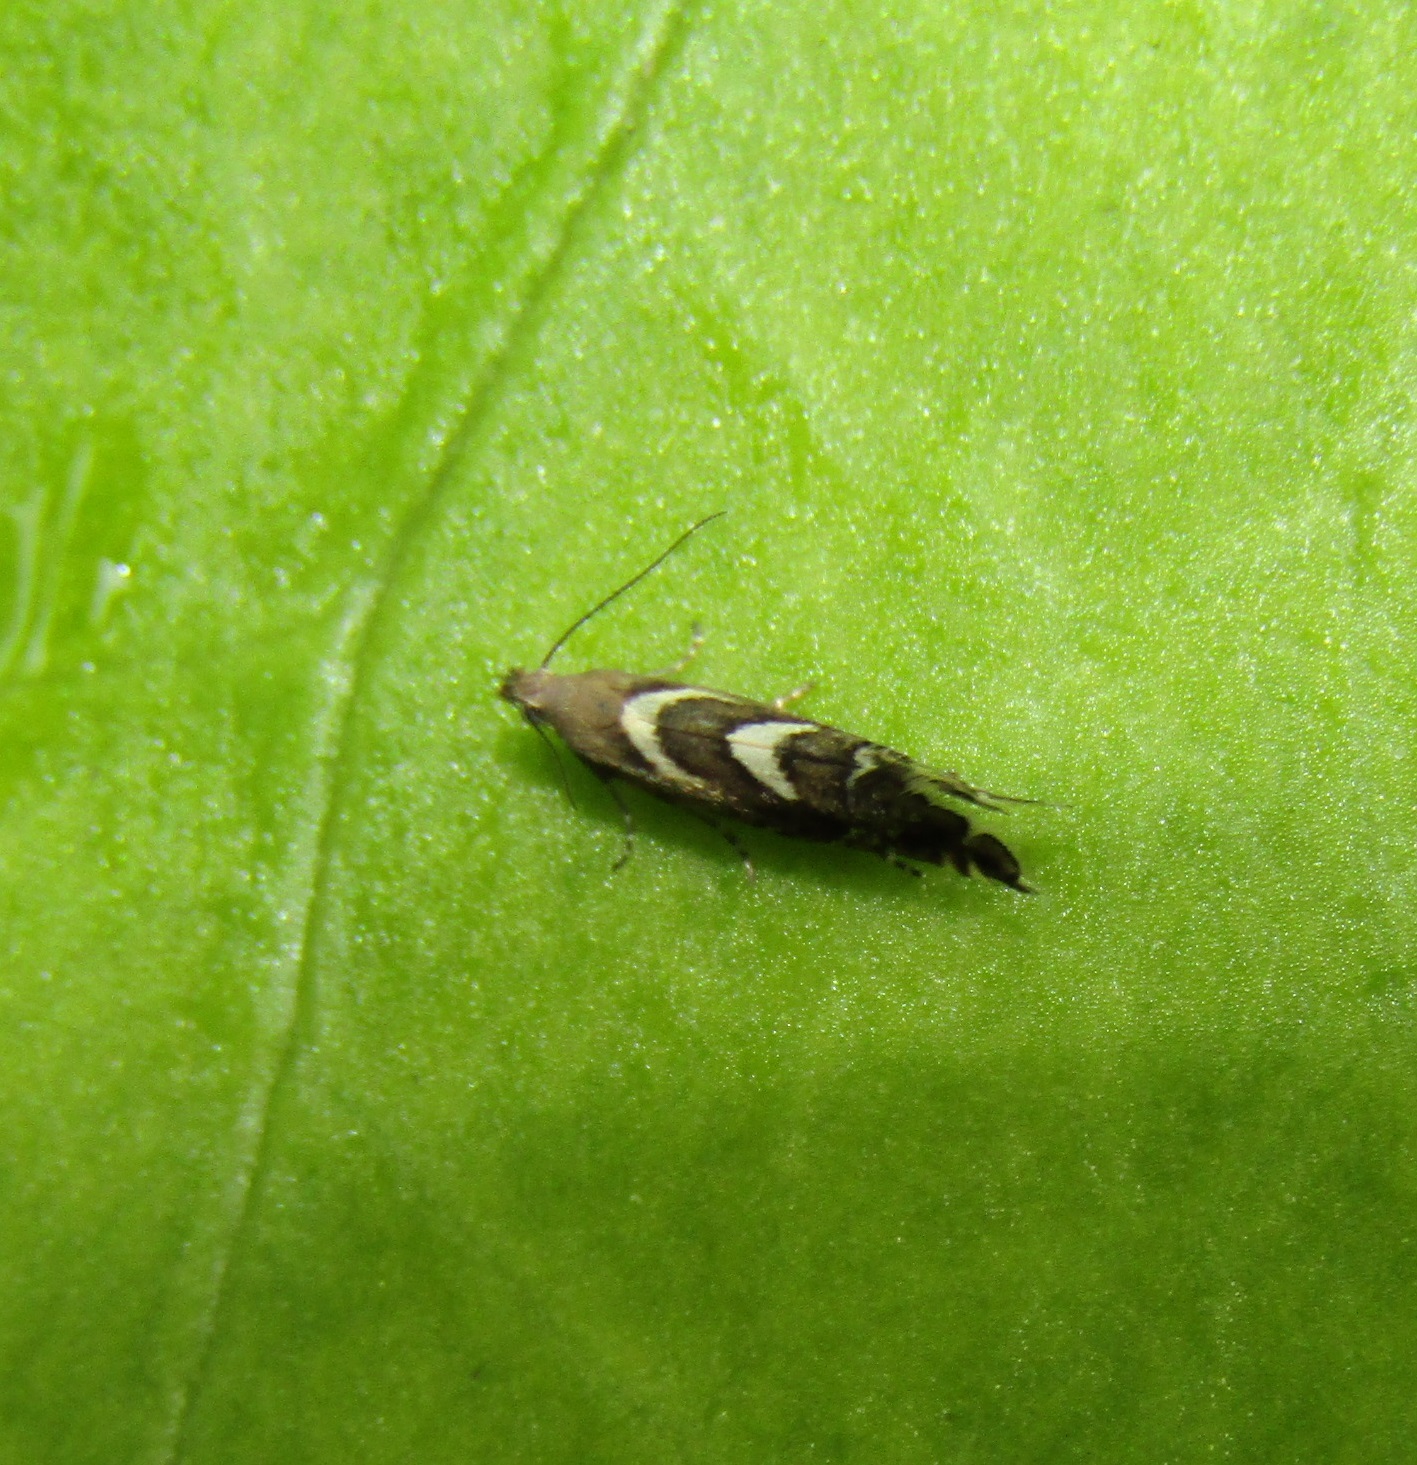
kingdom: Animalia
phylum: Arthropoda
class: Insecta
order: Lepidoptera
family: Glyphipterigidae
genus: Glyphipterix
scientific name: Glyphipterix asteronota
